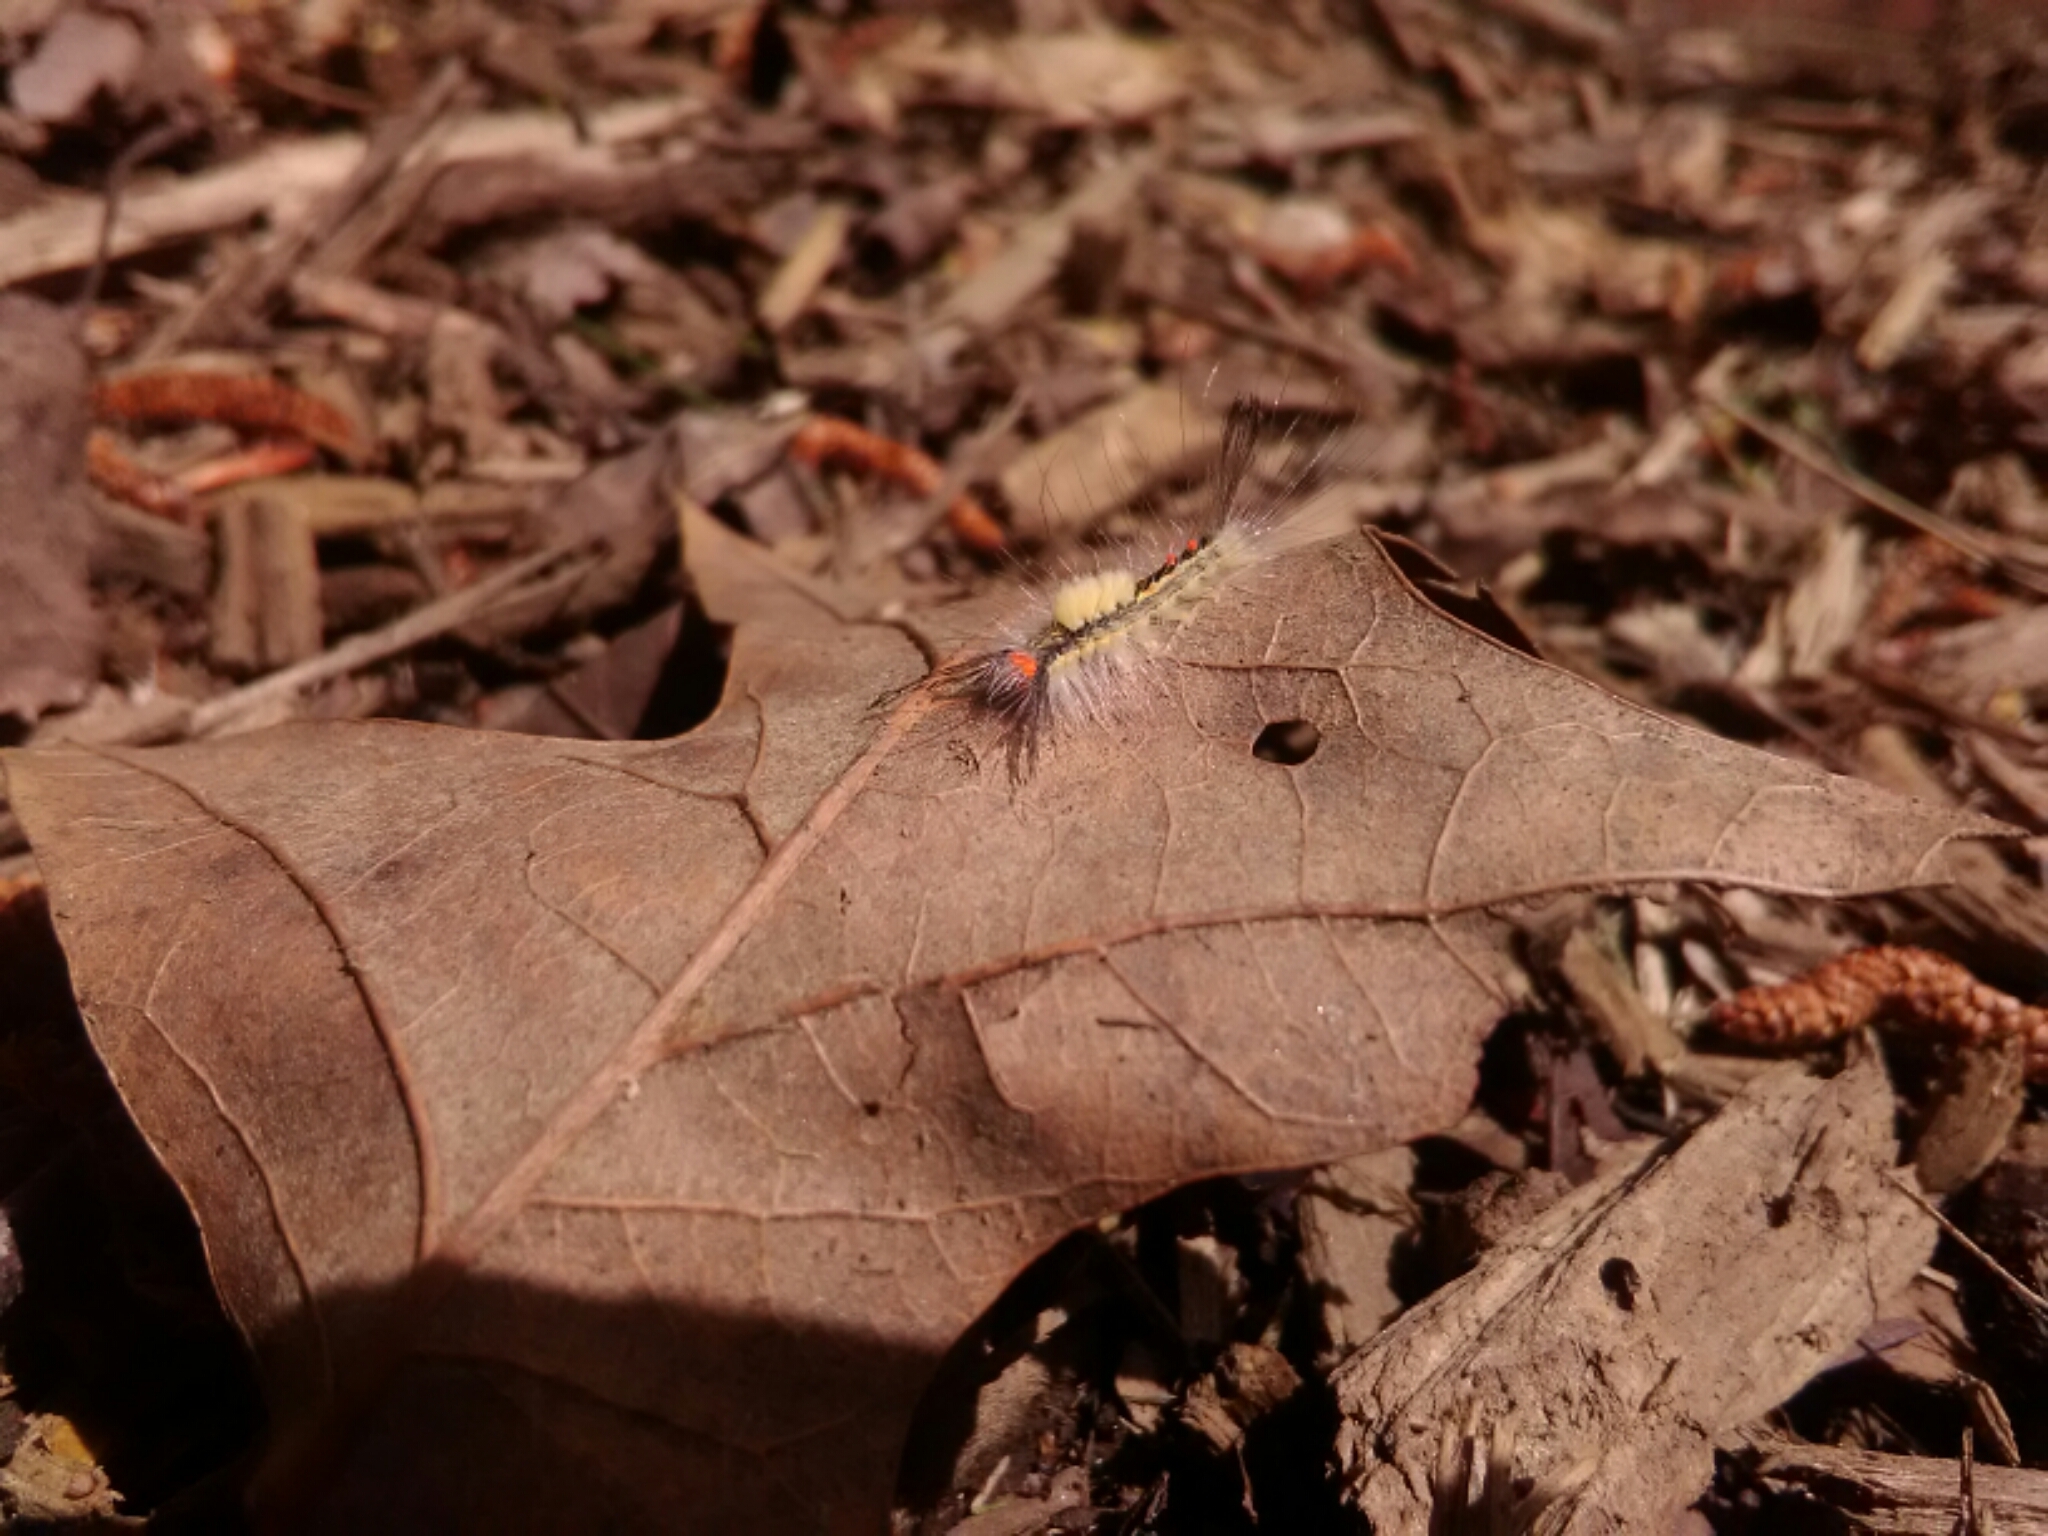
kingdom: Animalia
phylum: Arthropoda
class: Insecta
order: Lepidoptera
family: Erebidae
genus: Orgyia
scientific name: Orgyia leucostigma
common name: White-marked tussock moth
